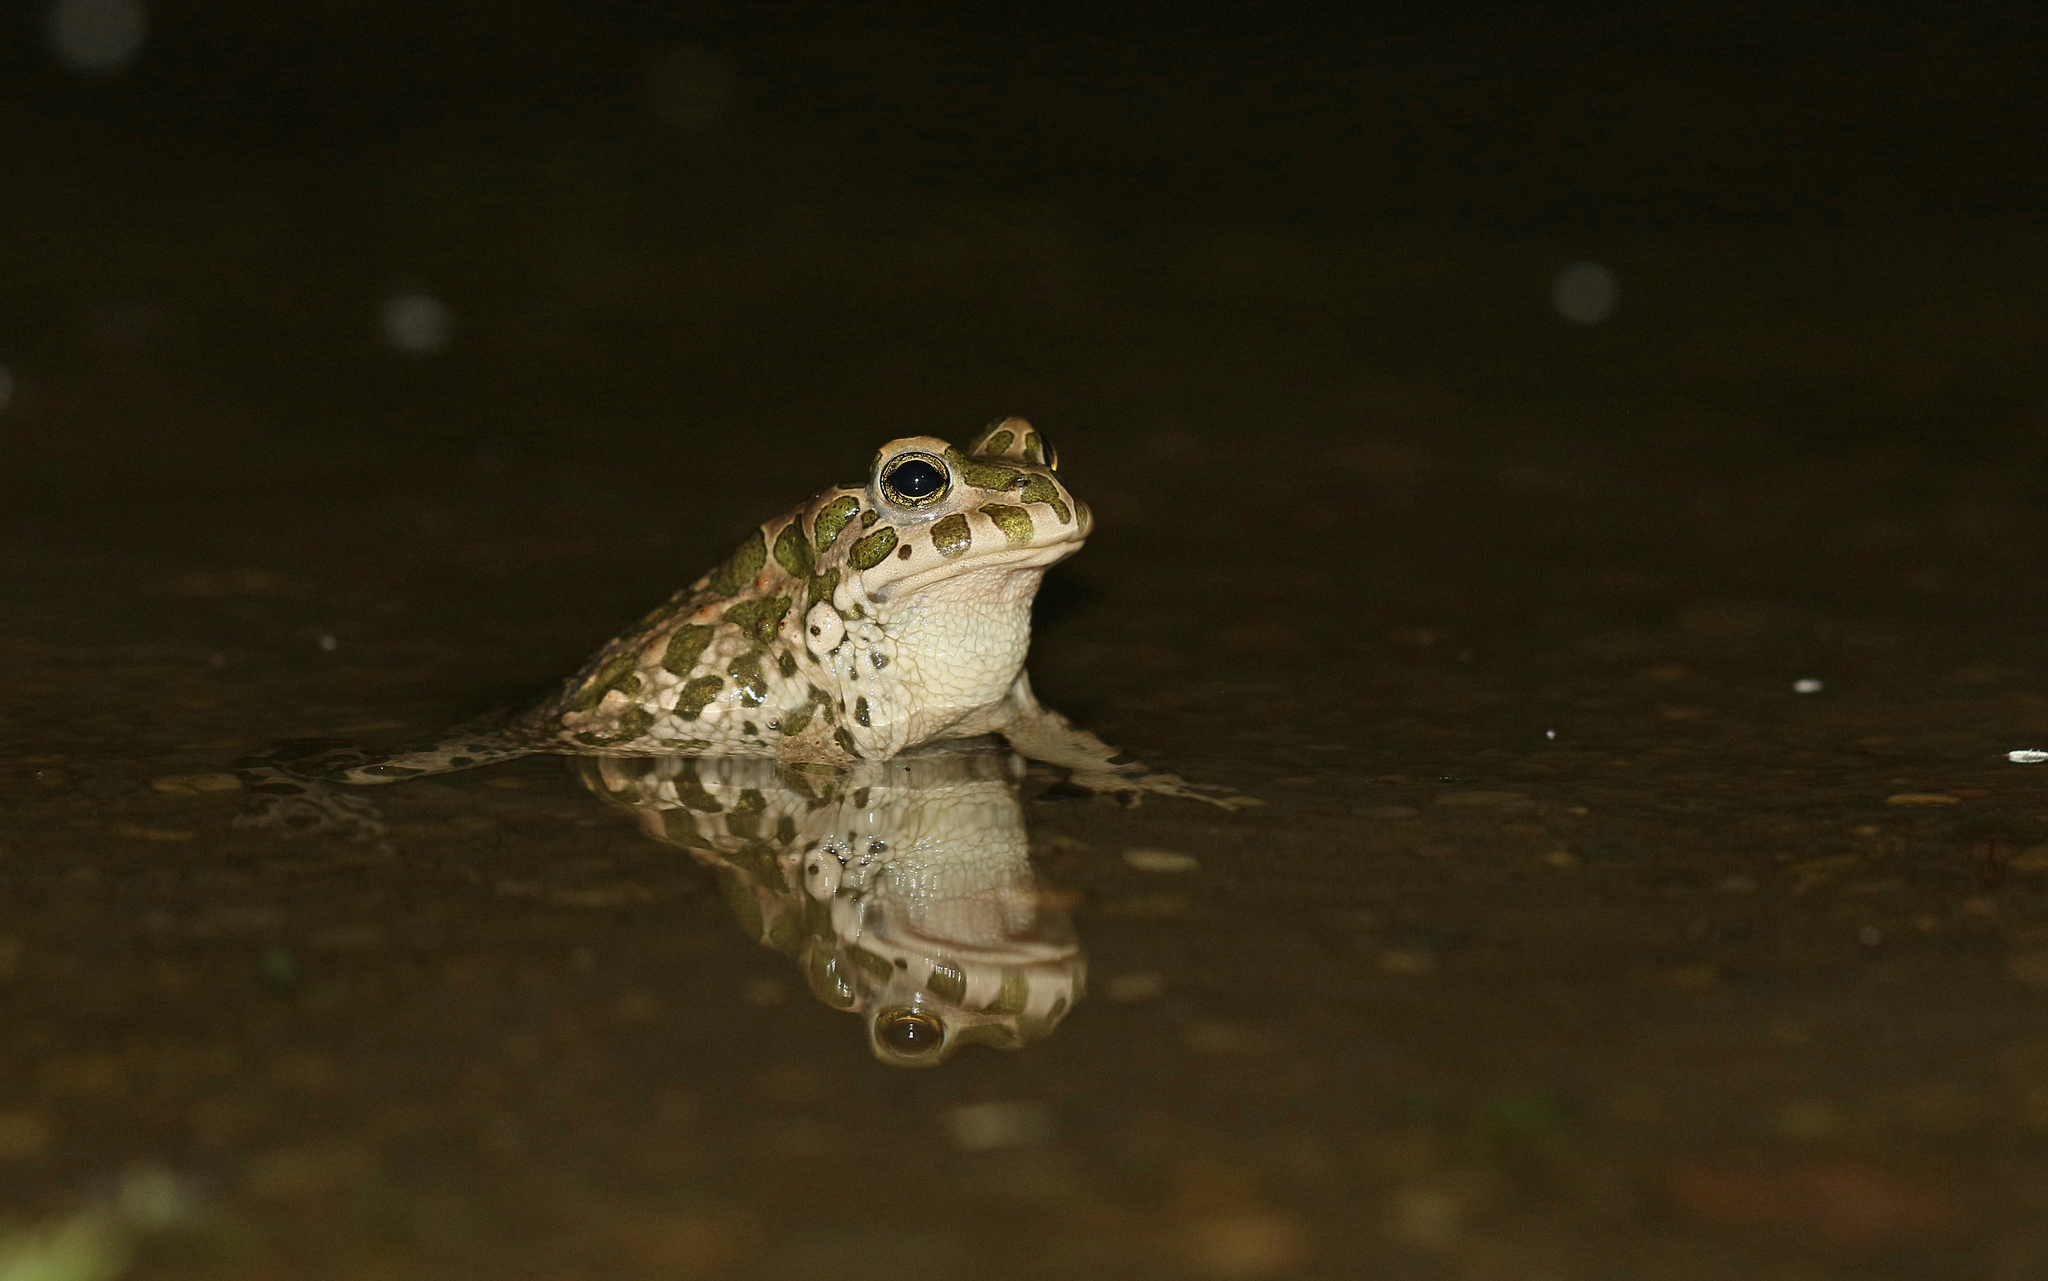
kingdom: Animalia
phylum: Chordata
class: Amphibia
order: Anura
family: Bufonidae
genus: Bufotes
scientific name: Bufotes viridis
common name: European green toad
